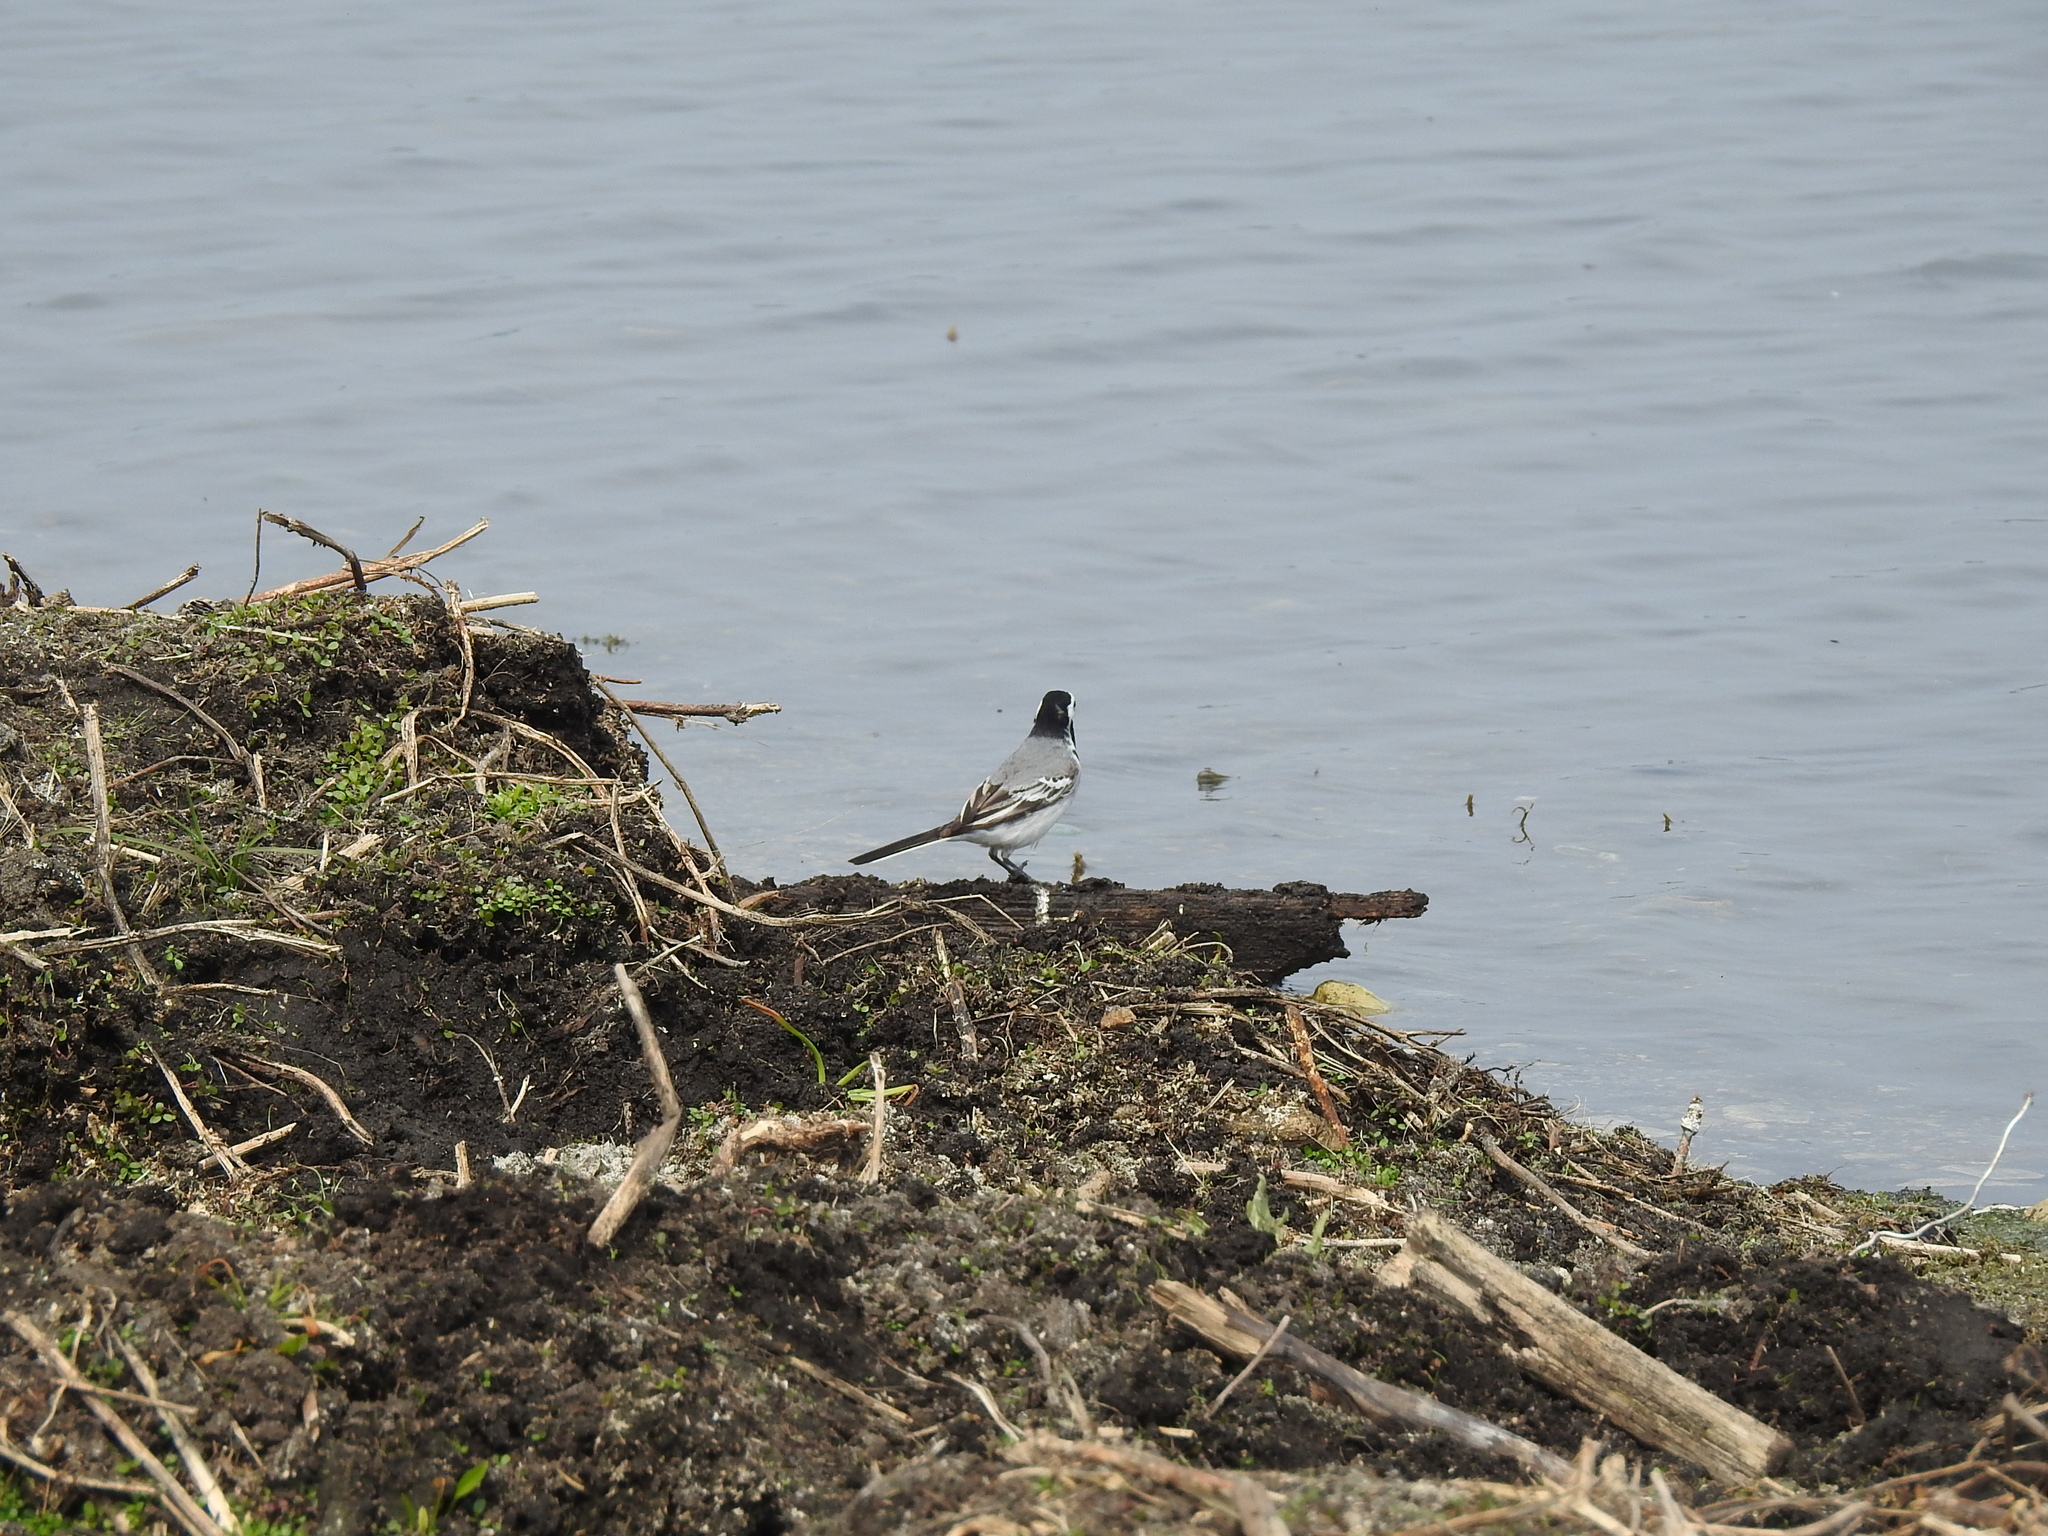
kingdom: Animalia
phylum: Chordata
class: Aves
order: Passeriformes
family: Motacillidae
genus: Motacilla
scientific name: Motacilla alba
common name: White wagtail
